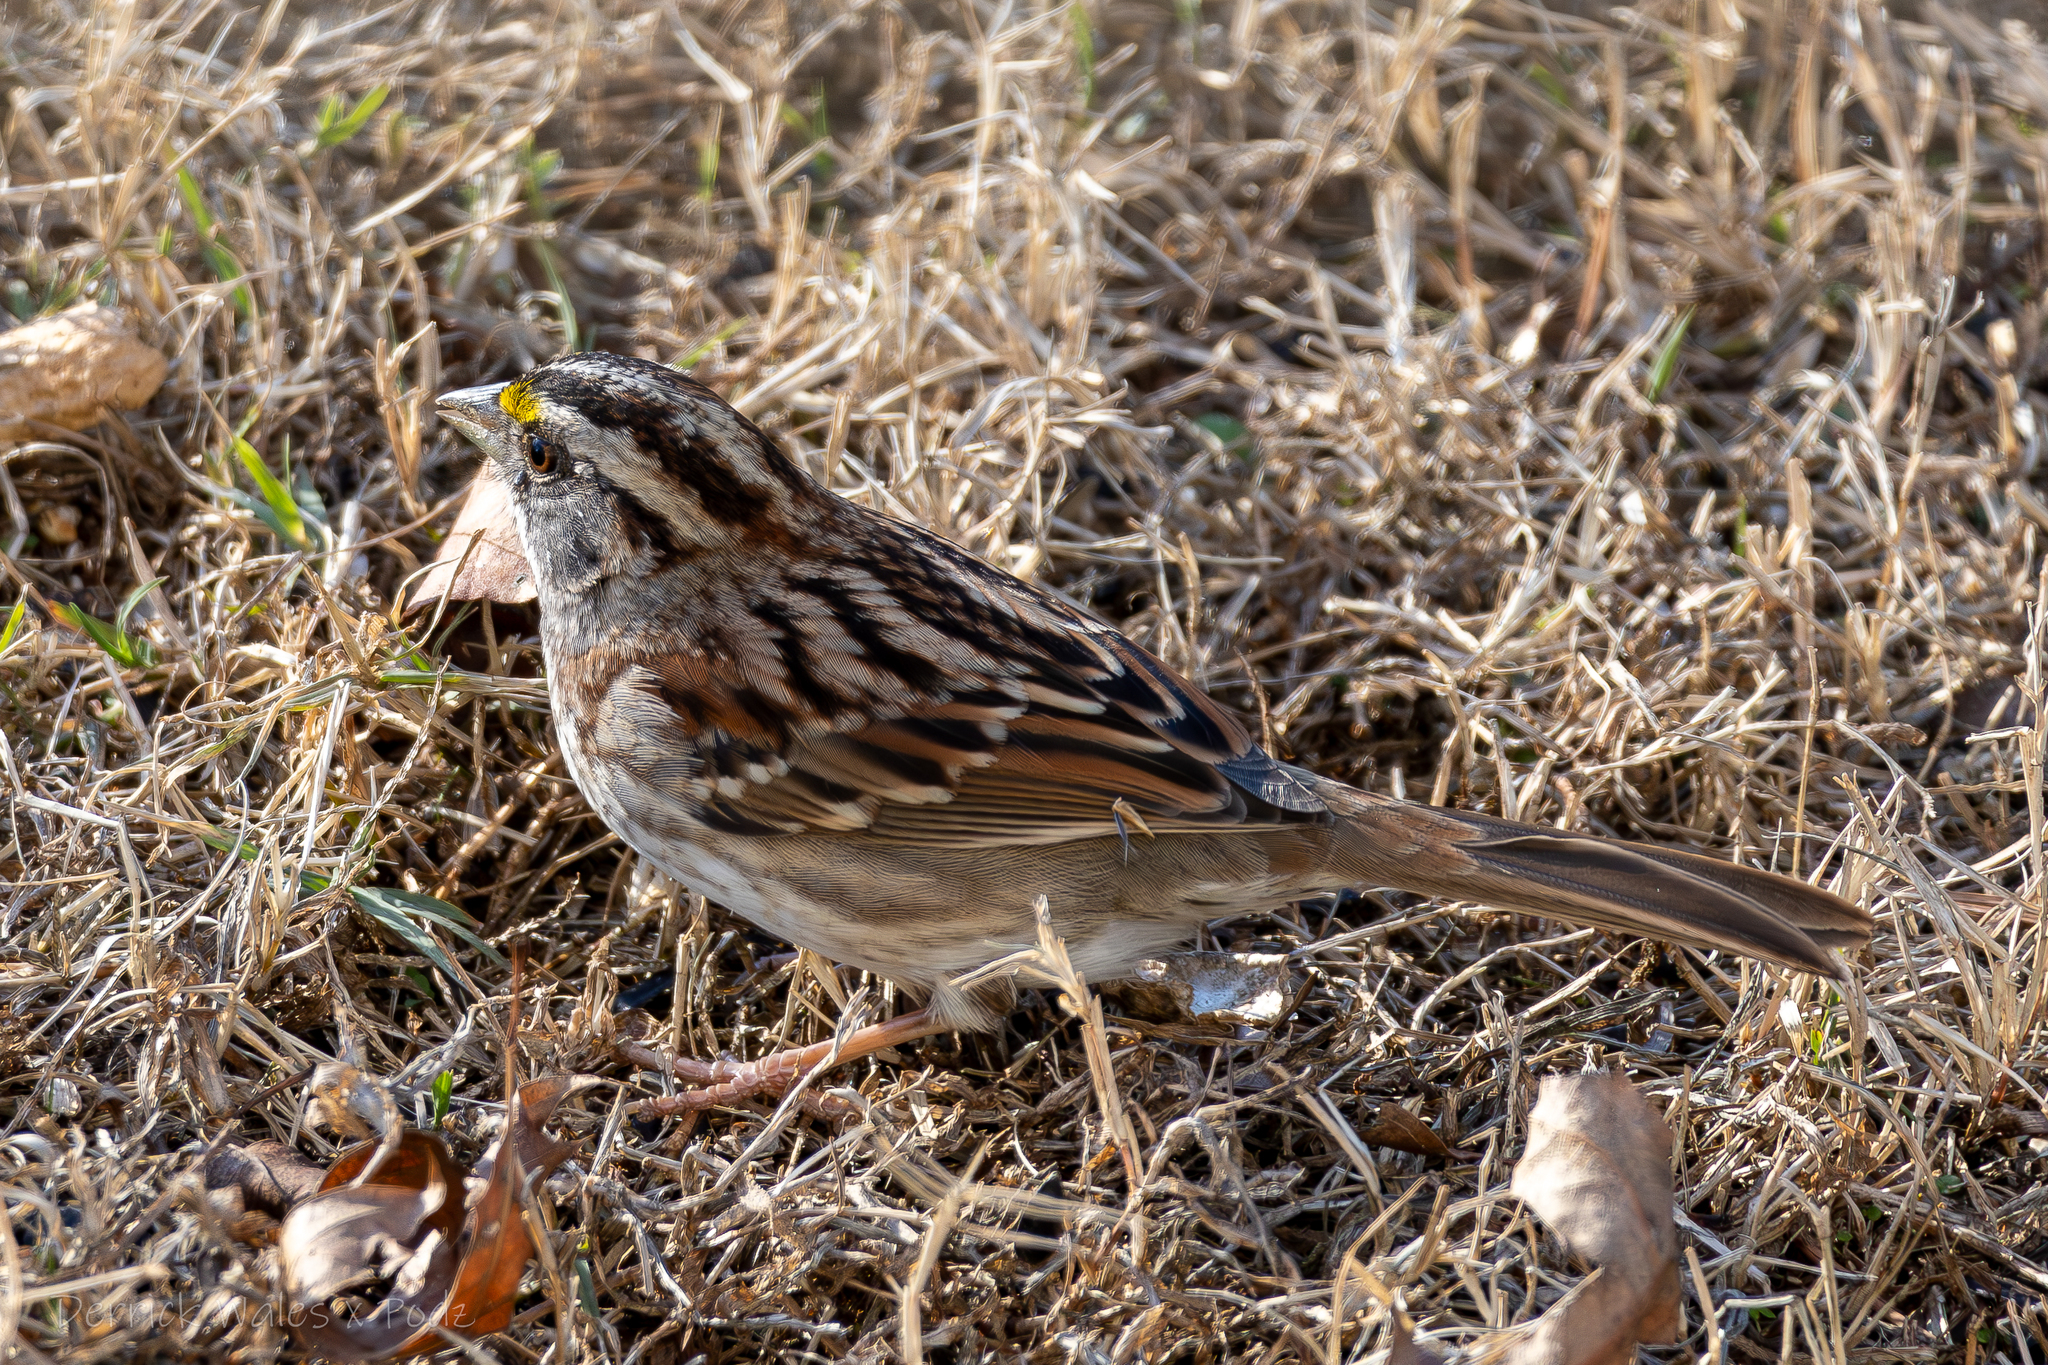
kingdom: Animalia
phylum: Chordata
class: Aves
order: Passeriformes
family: Passerellidae
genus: Zonotrichia
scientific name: Zonotrichia albicollis
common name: White-throated sparrow
